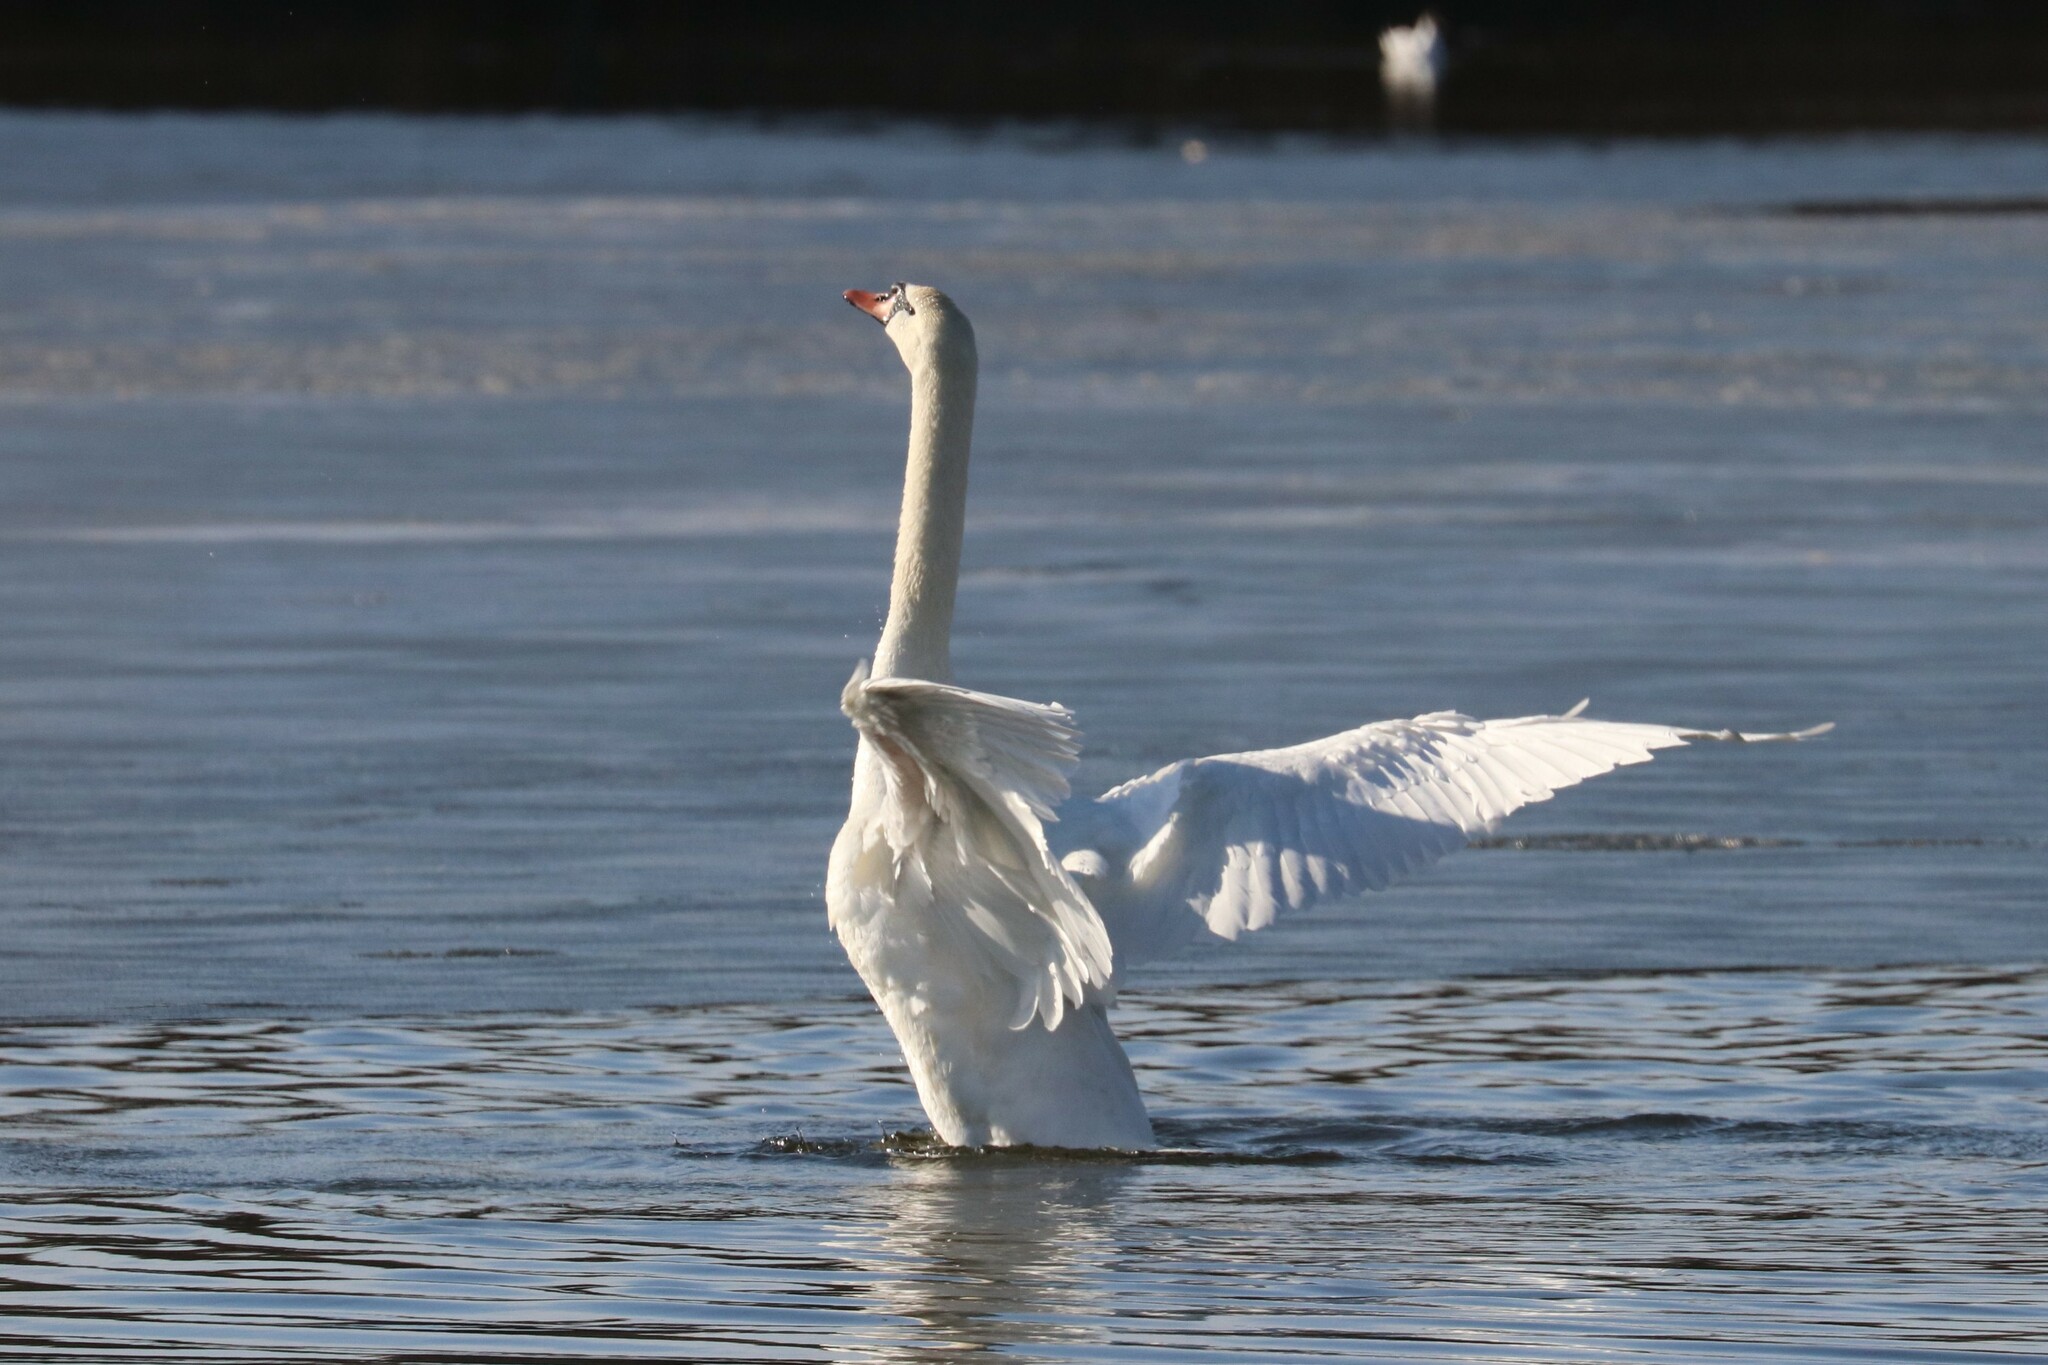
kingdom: Animalia
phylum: Chordata
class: Aves
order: Anseriformes
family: Anatidae
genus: Cygnus
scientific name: Cygnus olor
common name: Mute swan
